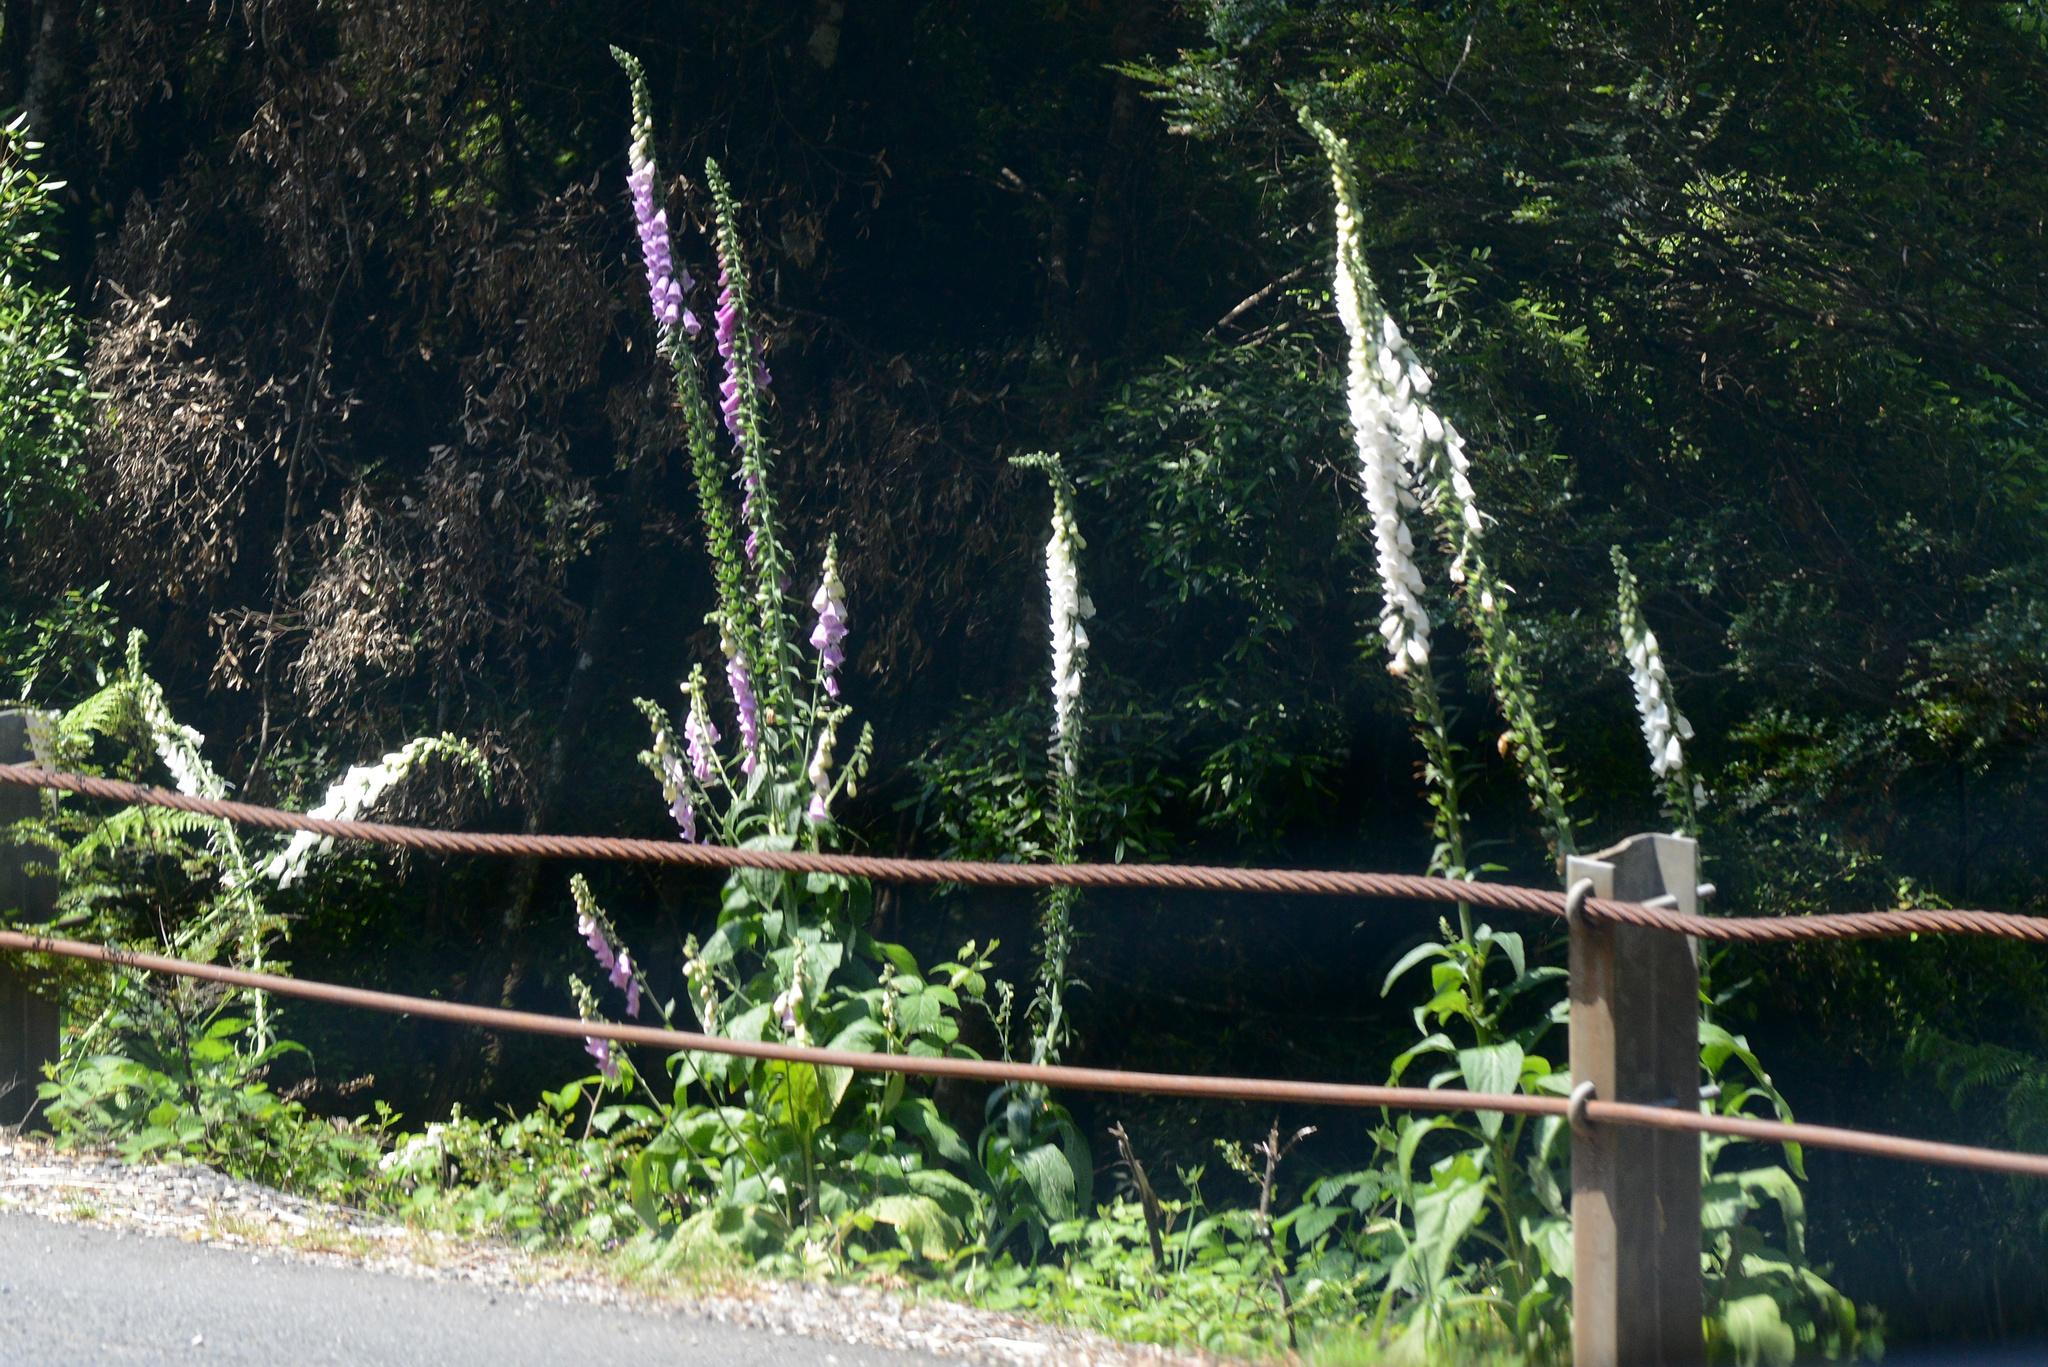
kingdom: Plantae
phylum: Tracheophyta
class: Magnoliopsida
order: Lamiales
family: Plantaginaceae
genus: Digitalis
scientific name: Digitalis purpurea
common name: Foxglove
